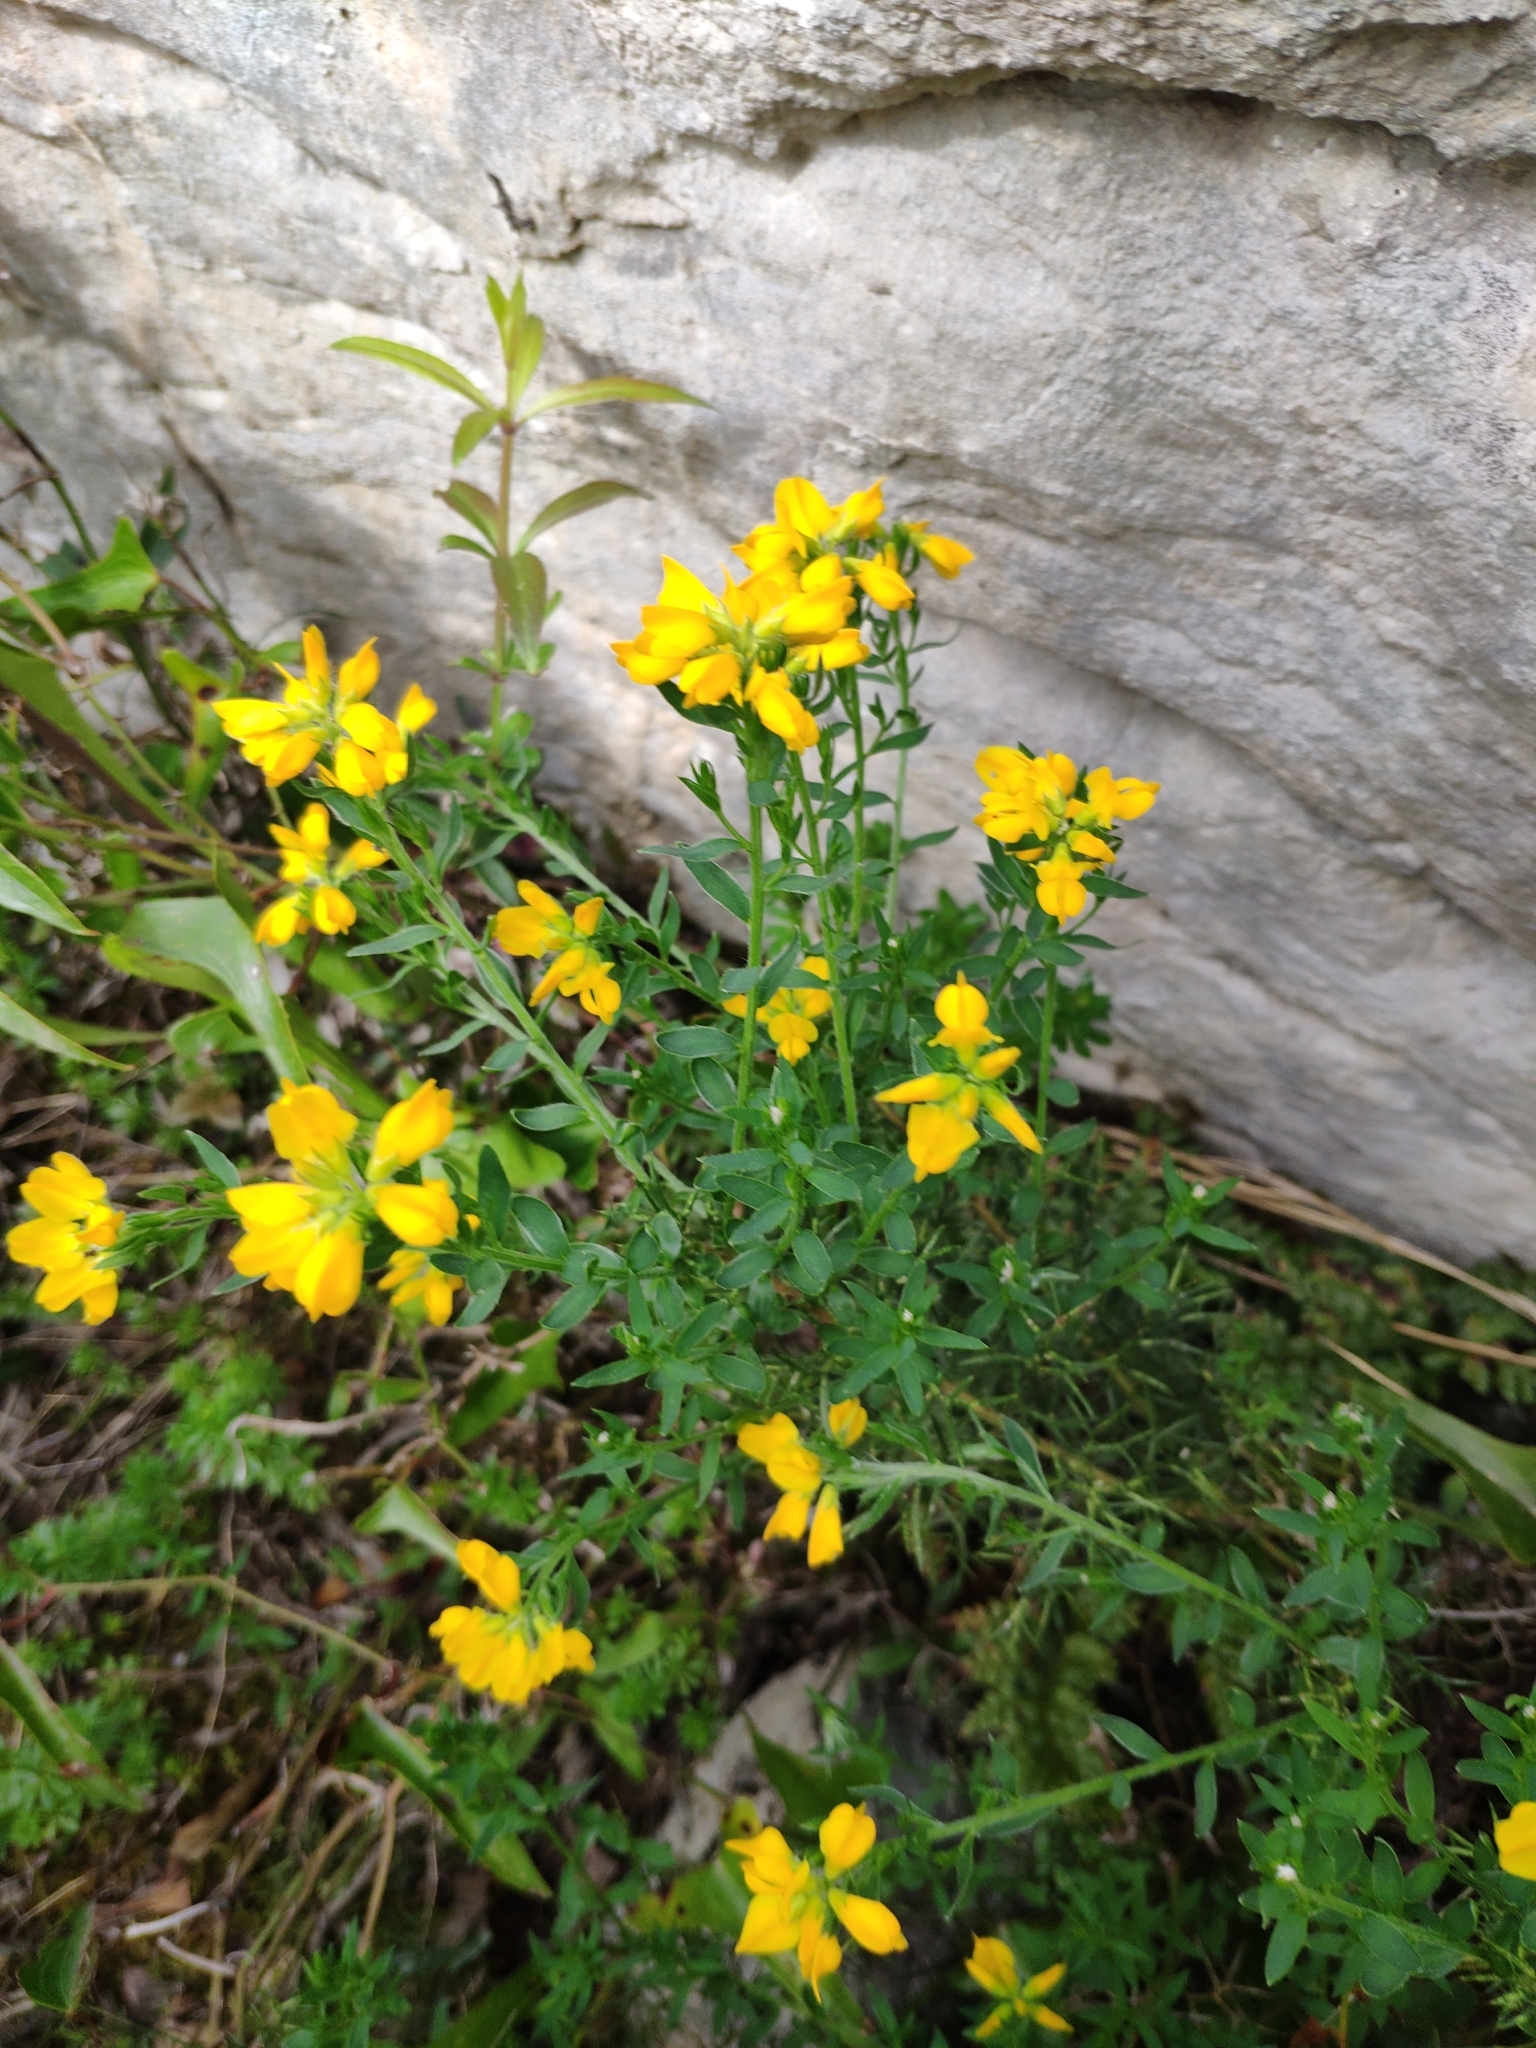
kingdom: Plantae
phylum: Tracheophyta
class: Magnoliopsida
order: Fabales
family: Fabaceae
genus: Genista
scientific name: Genista hispanica
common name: Spanish gorse
